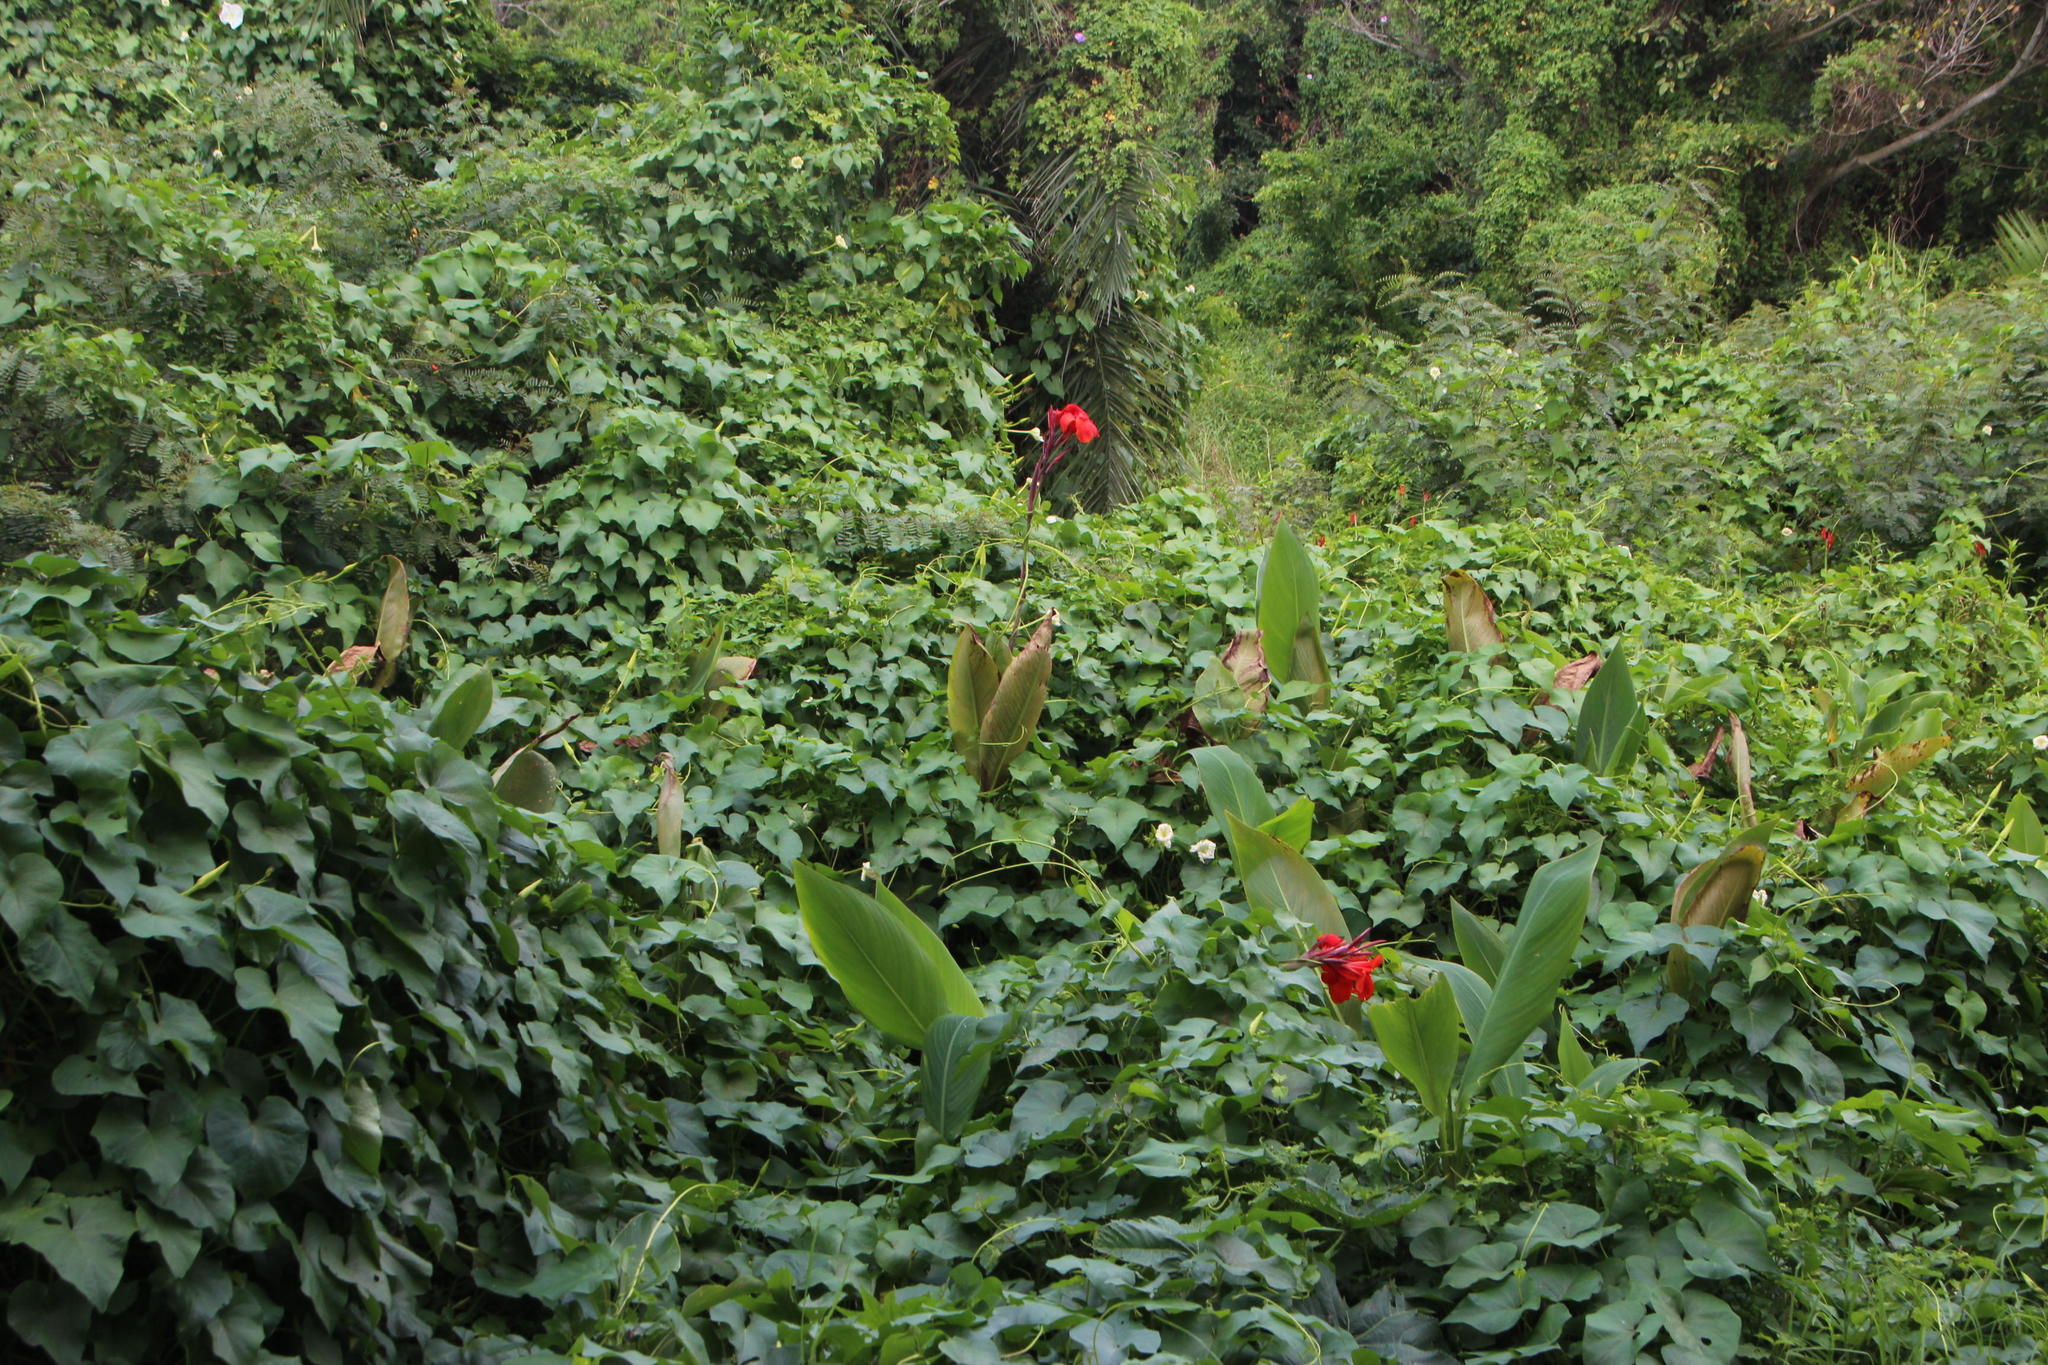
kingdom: Plantae
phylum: Tracheophyta
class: Liliopsida
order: Zingiberales
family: Cannaceae
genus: Canna
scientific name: Canna indica
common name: Indian shot
